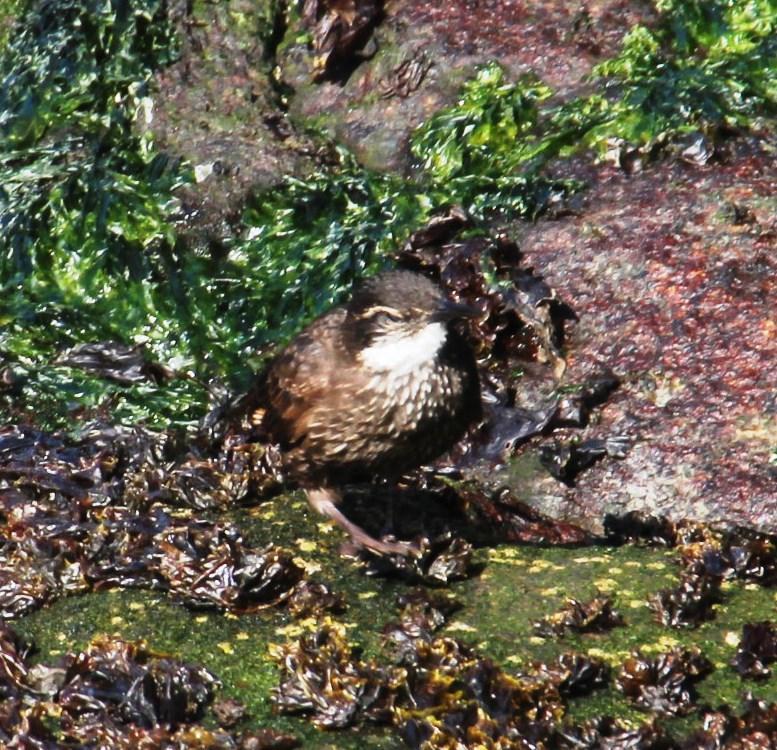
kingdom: Animalia
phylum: Chordata
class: Aves
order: Passeriformes
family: Furnariidae
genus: Cinclodes
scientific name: Cinclodes nigrofumosus
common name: Chilean seaside cinclodes
